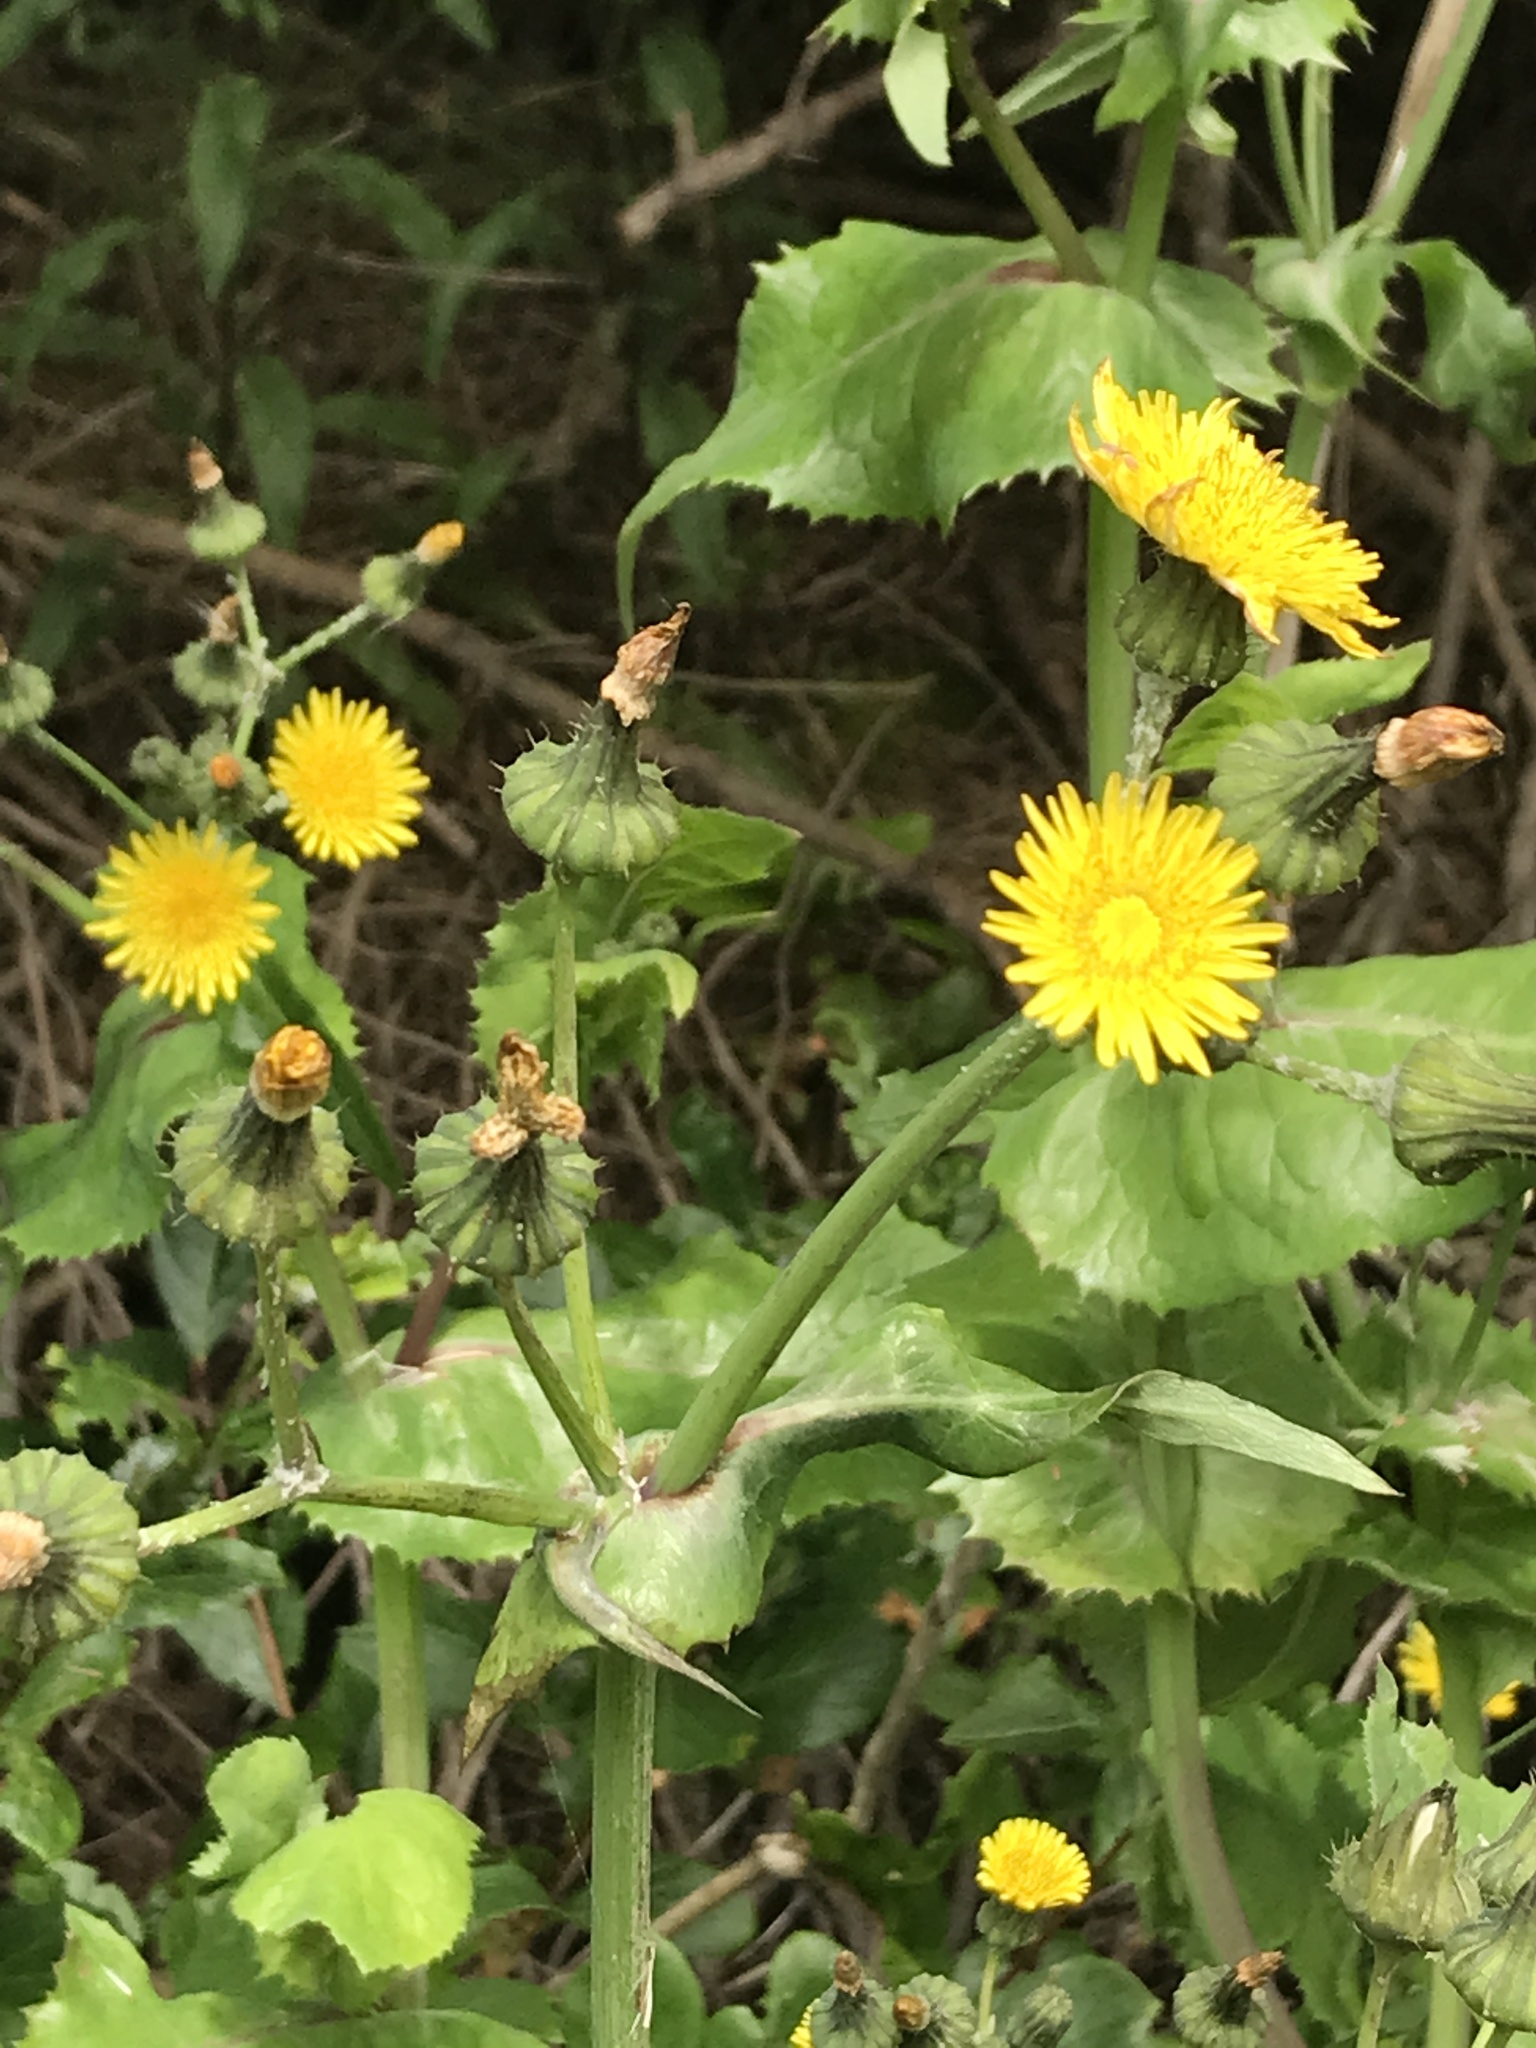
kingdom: Plantae
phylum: Tracheophyta
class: Magnoliopsida
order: Asterales
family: Asteraceae
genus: Sonchus
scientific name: Sonchus asper
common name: Prickly sow-thistle
